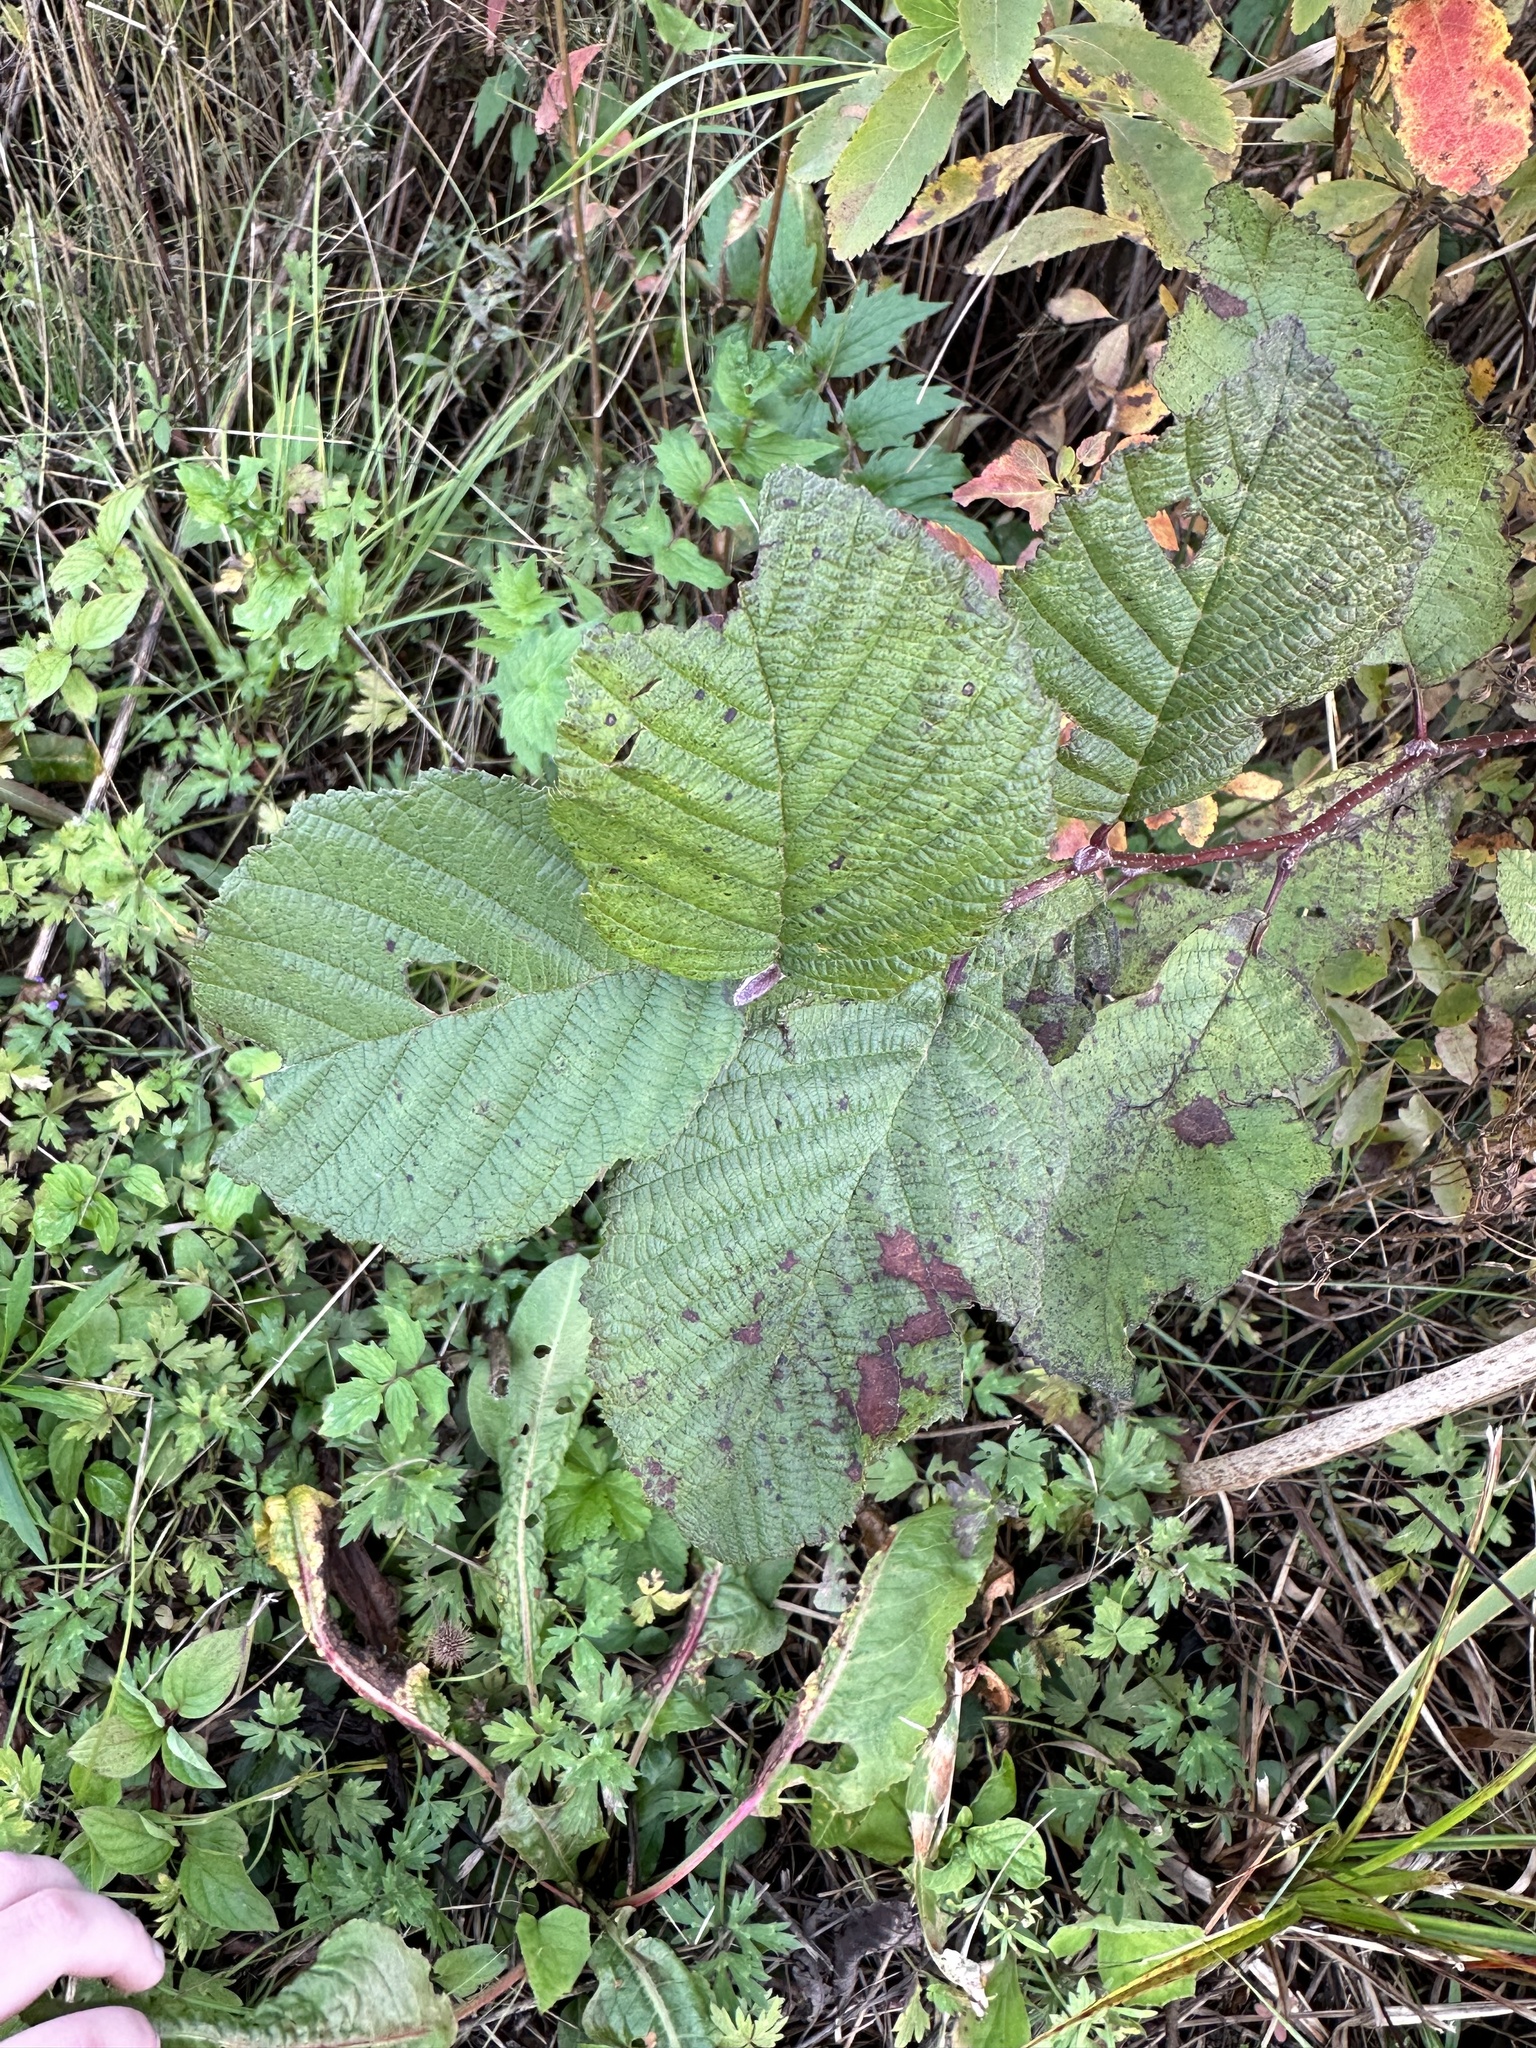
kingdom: Plantae
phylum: Tracheophyta
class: Magnoliopsida
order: Fagales
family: Betulaceae
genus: Alnus
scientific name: Alnus incana
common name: Grey alder
